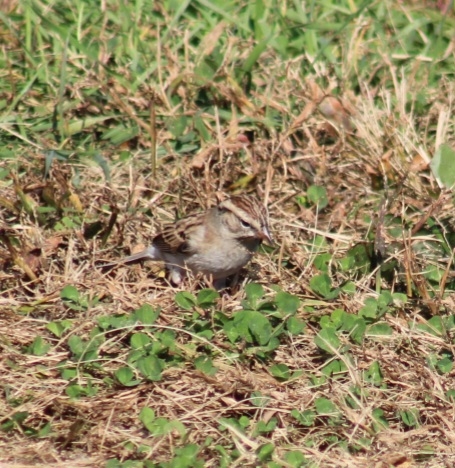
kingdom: Animalia
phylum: Chordata
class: Aves
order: Passeriformes
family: Passerellidae
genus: Spizella
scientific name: Spizella passerina
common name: Chipping sparrow
